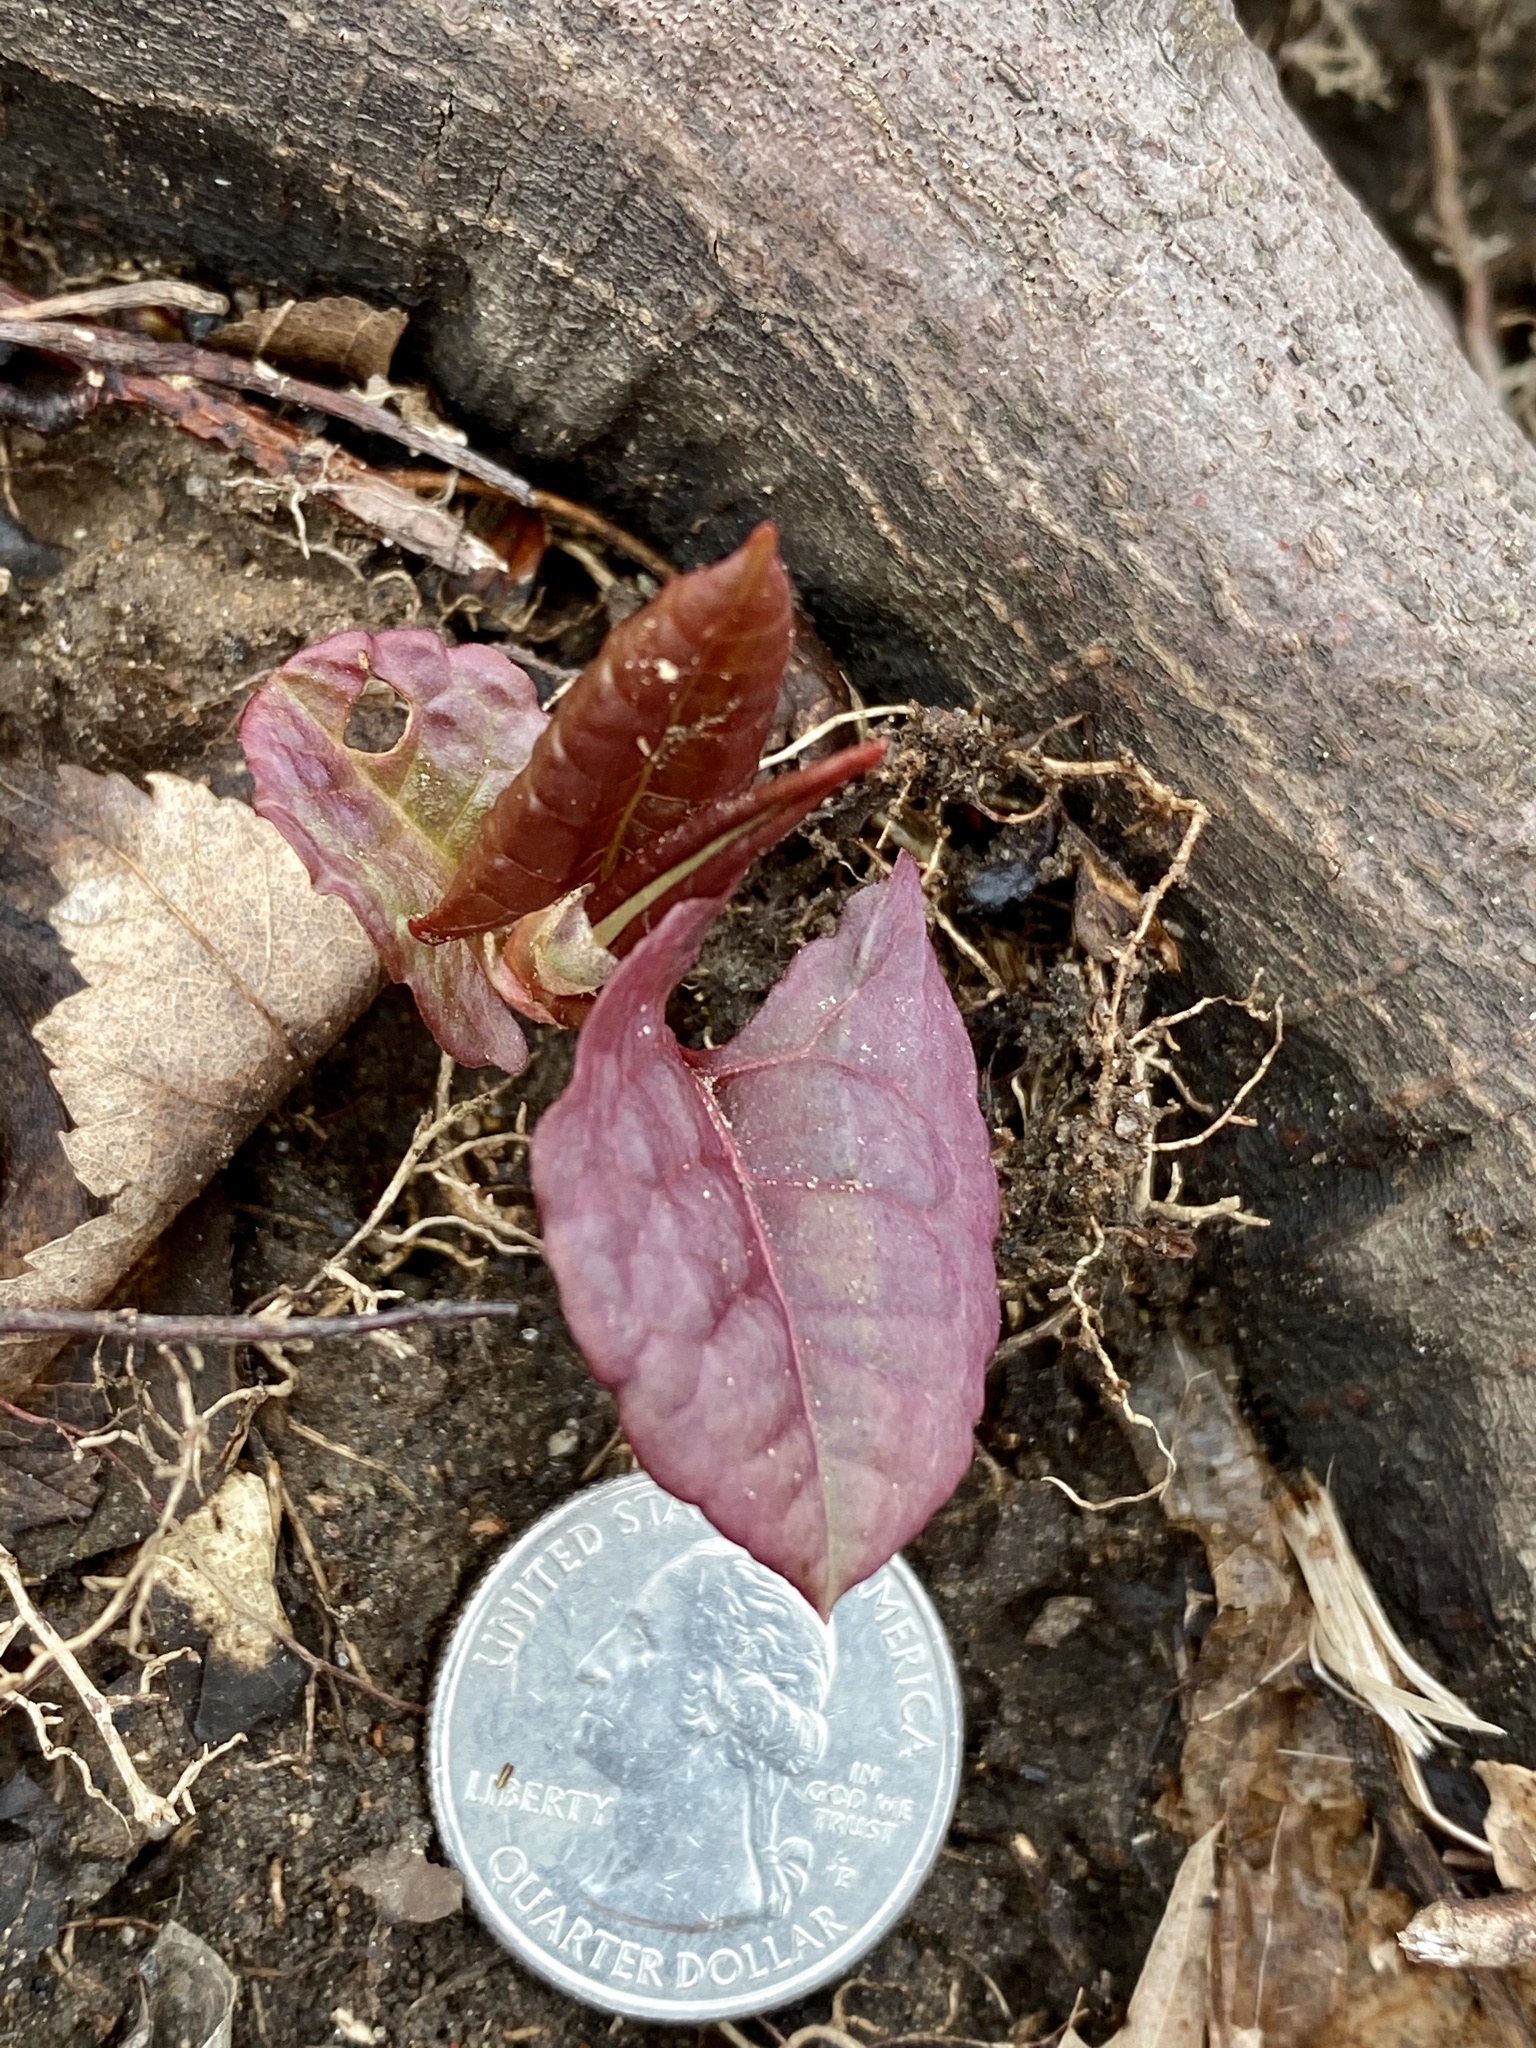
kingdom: Plantae
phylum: Tracheophyta
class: Magnoliopsida
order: Caryophyllales
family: Polygonaceae
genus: Reynoutria
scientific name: Reynoutria japonica
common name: Japanese knotweed
